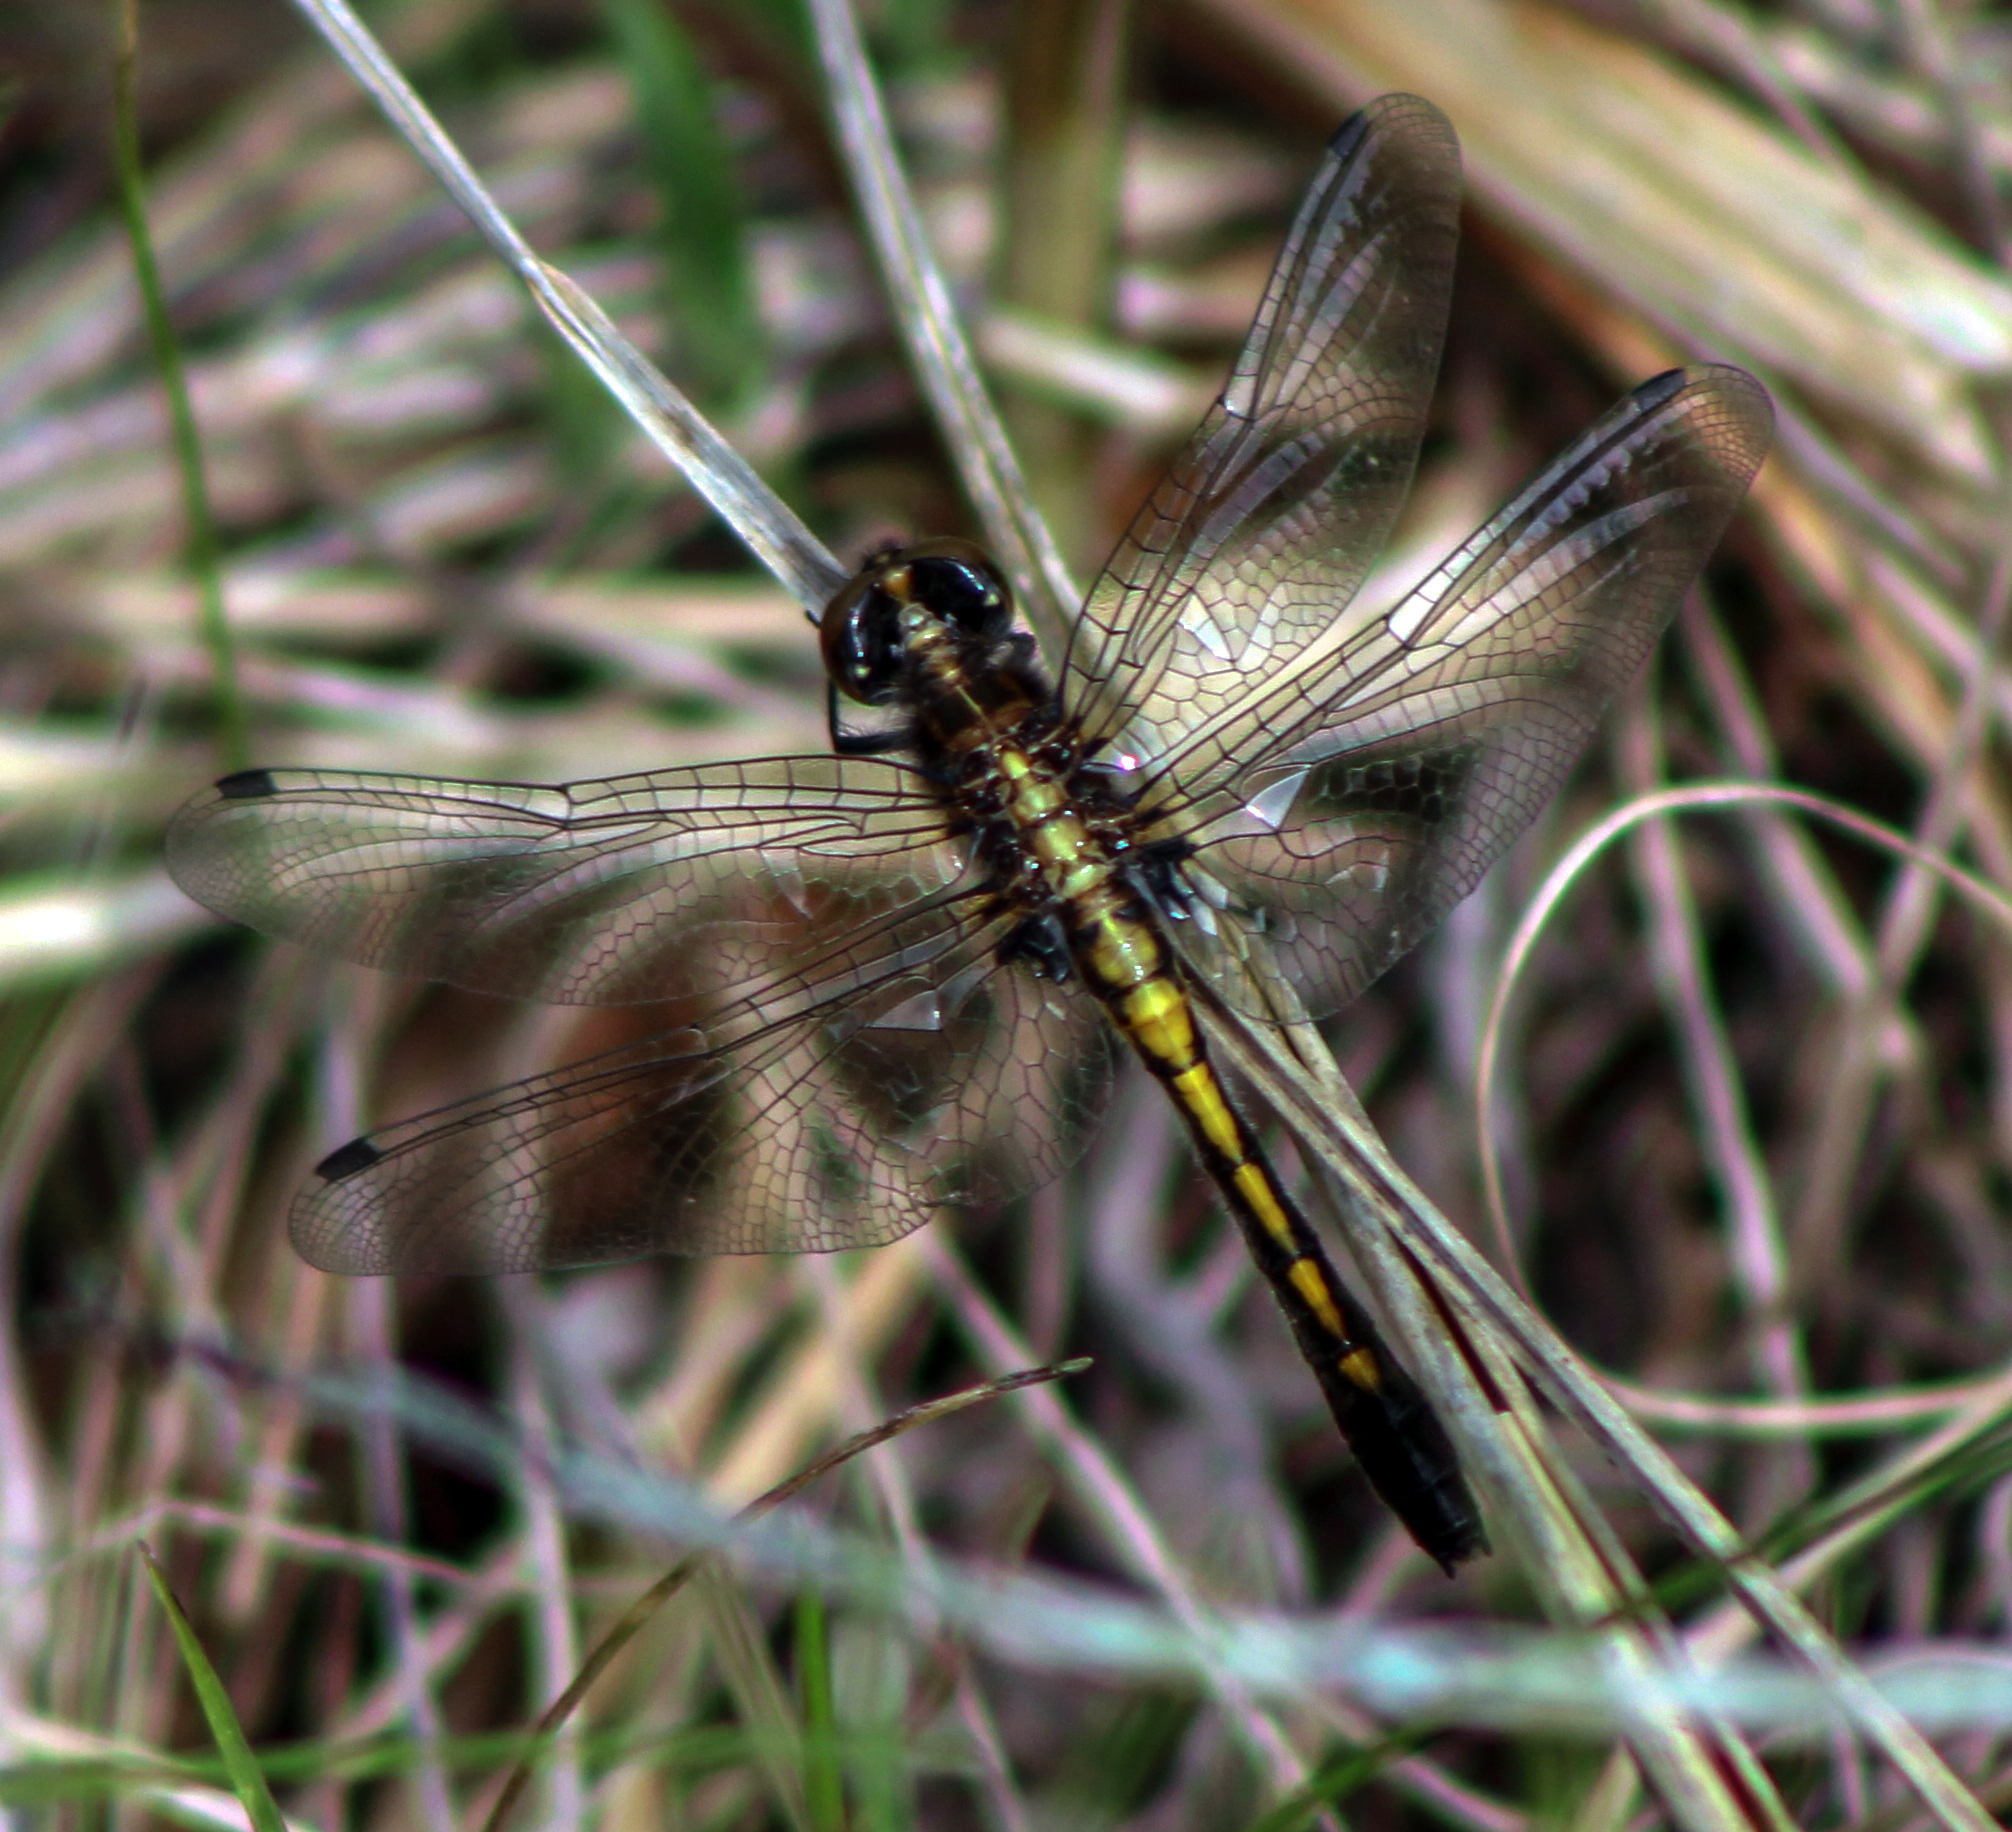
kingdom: Animalia
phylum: Arthropoda
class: Insecta
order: Odonata
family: Libellulidae
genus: Leucorrhinia
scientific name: Leucorrhinia intacta
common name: Dot-tailed whiteface
